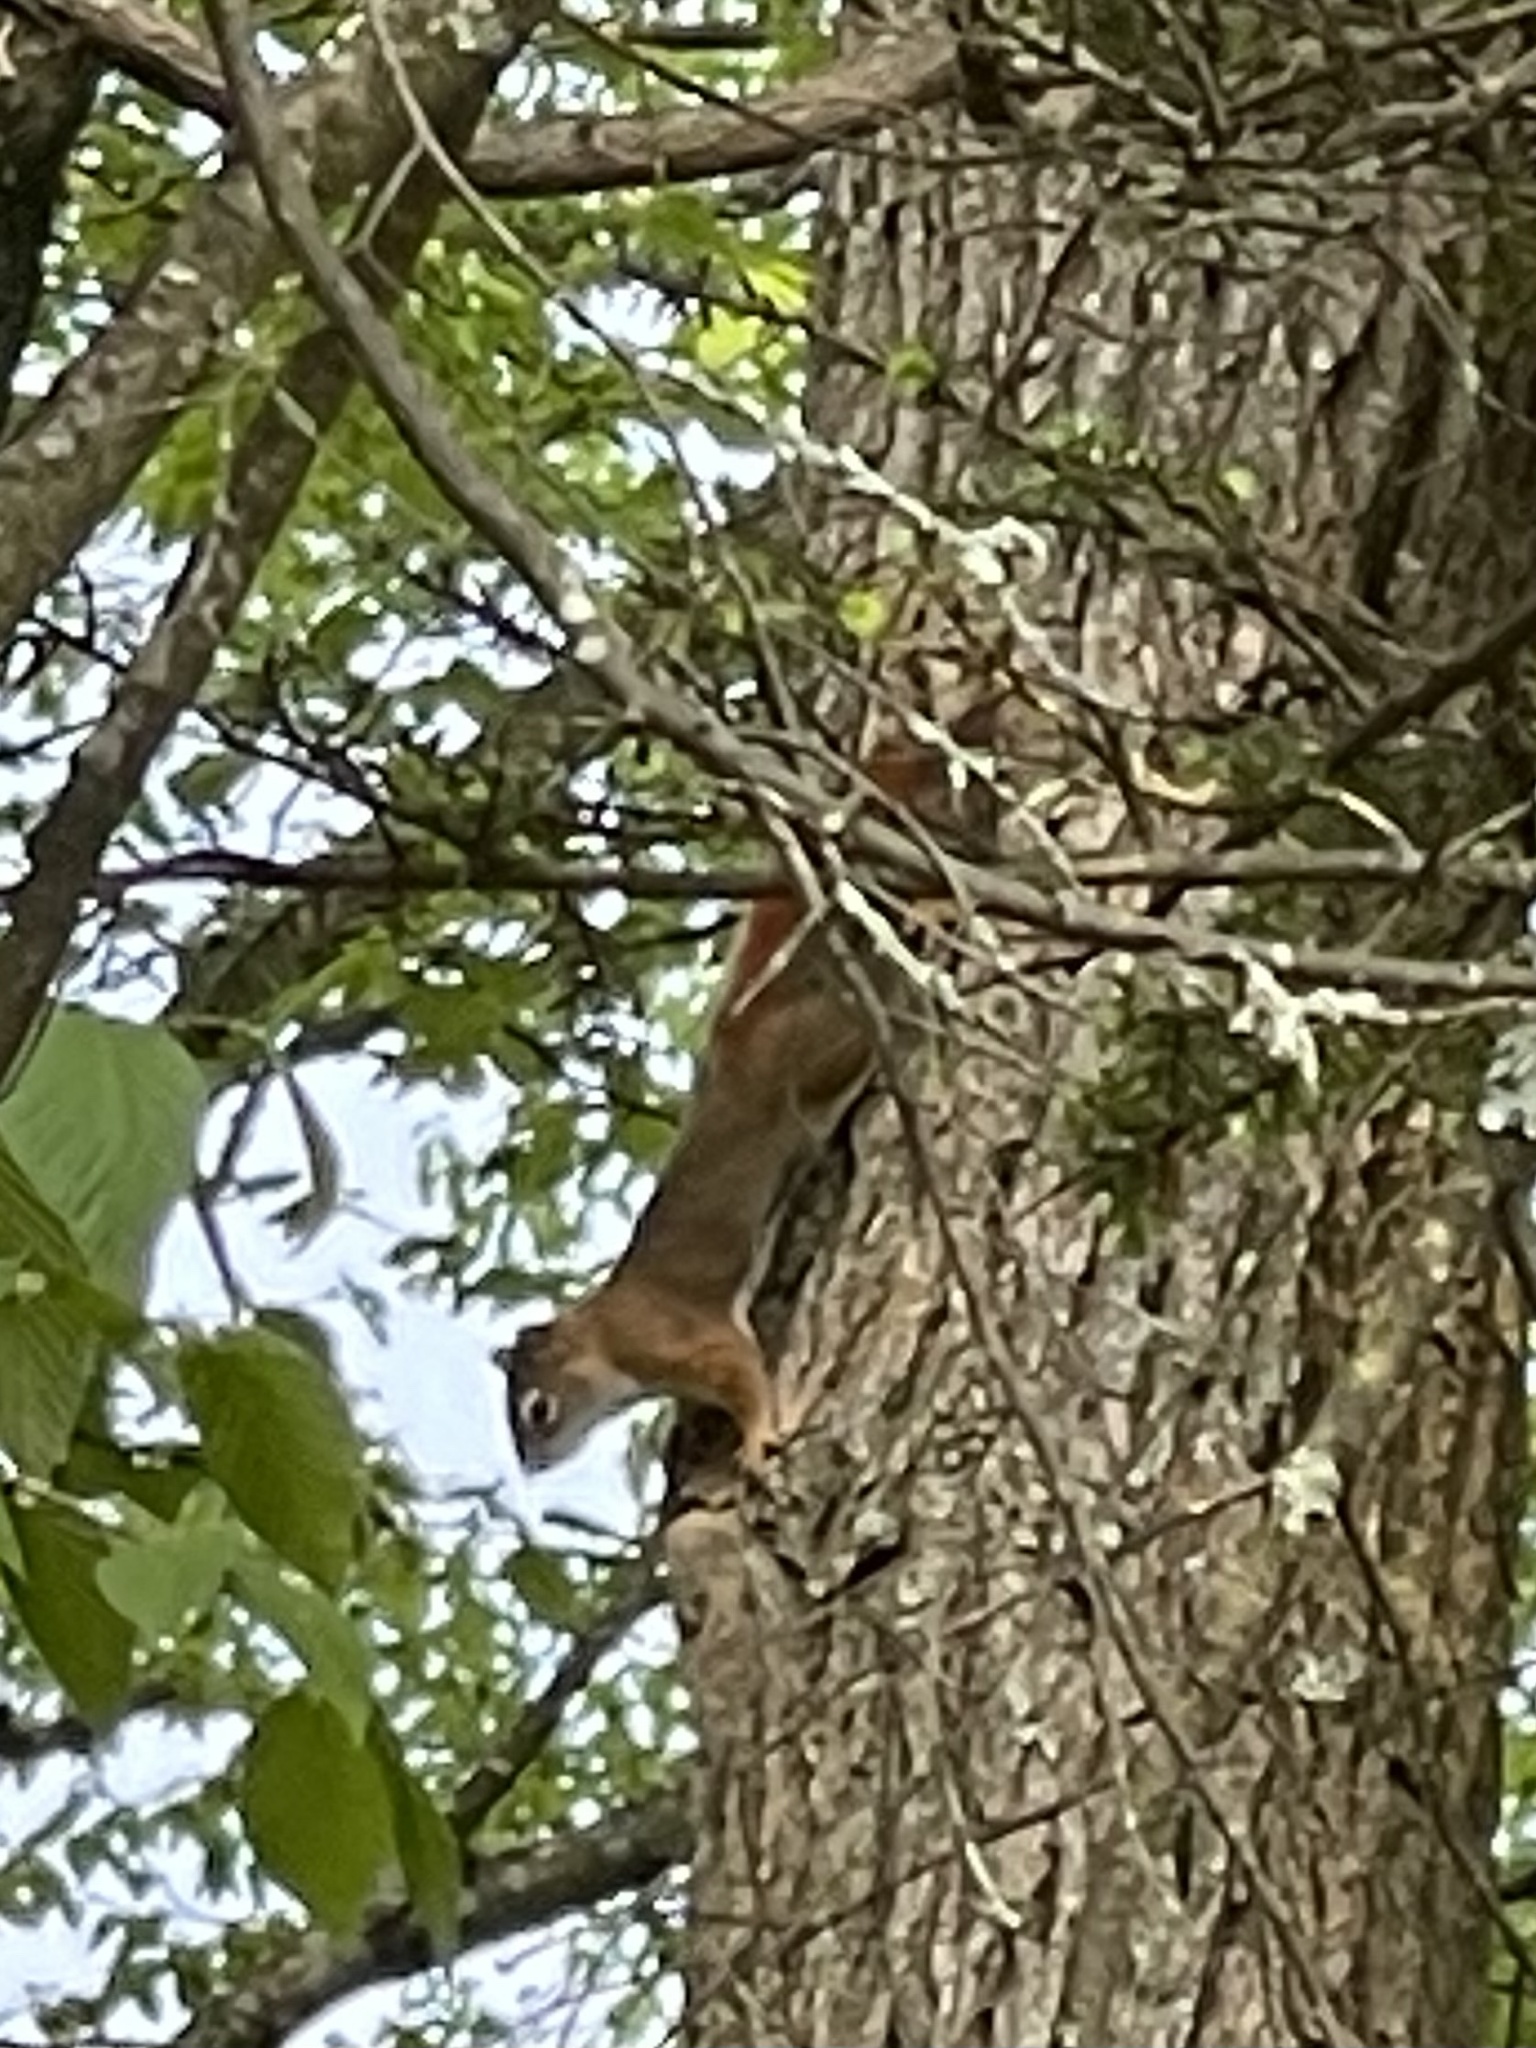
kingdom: Animalia
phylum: Chordata
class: Mammalia
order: Rodentia
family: Sciuridae
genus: Tamiasciurus
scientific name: Tamiasciurus hudsonicus
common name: Red squirrel
